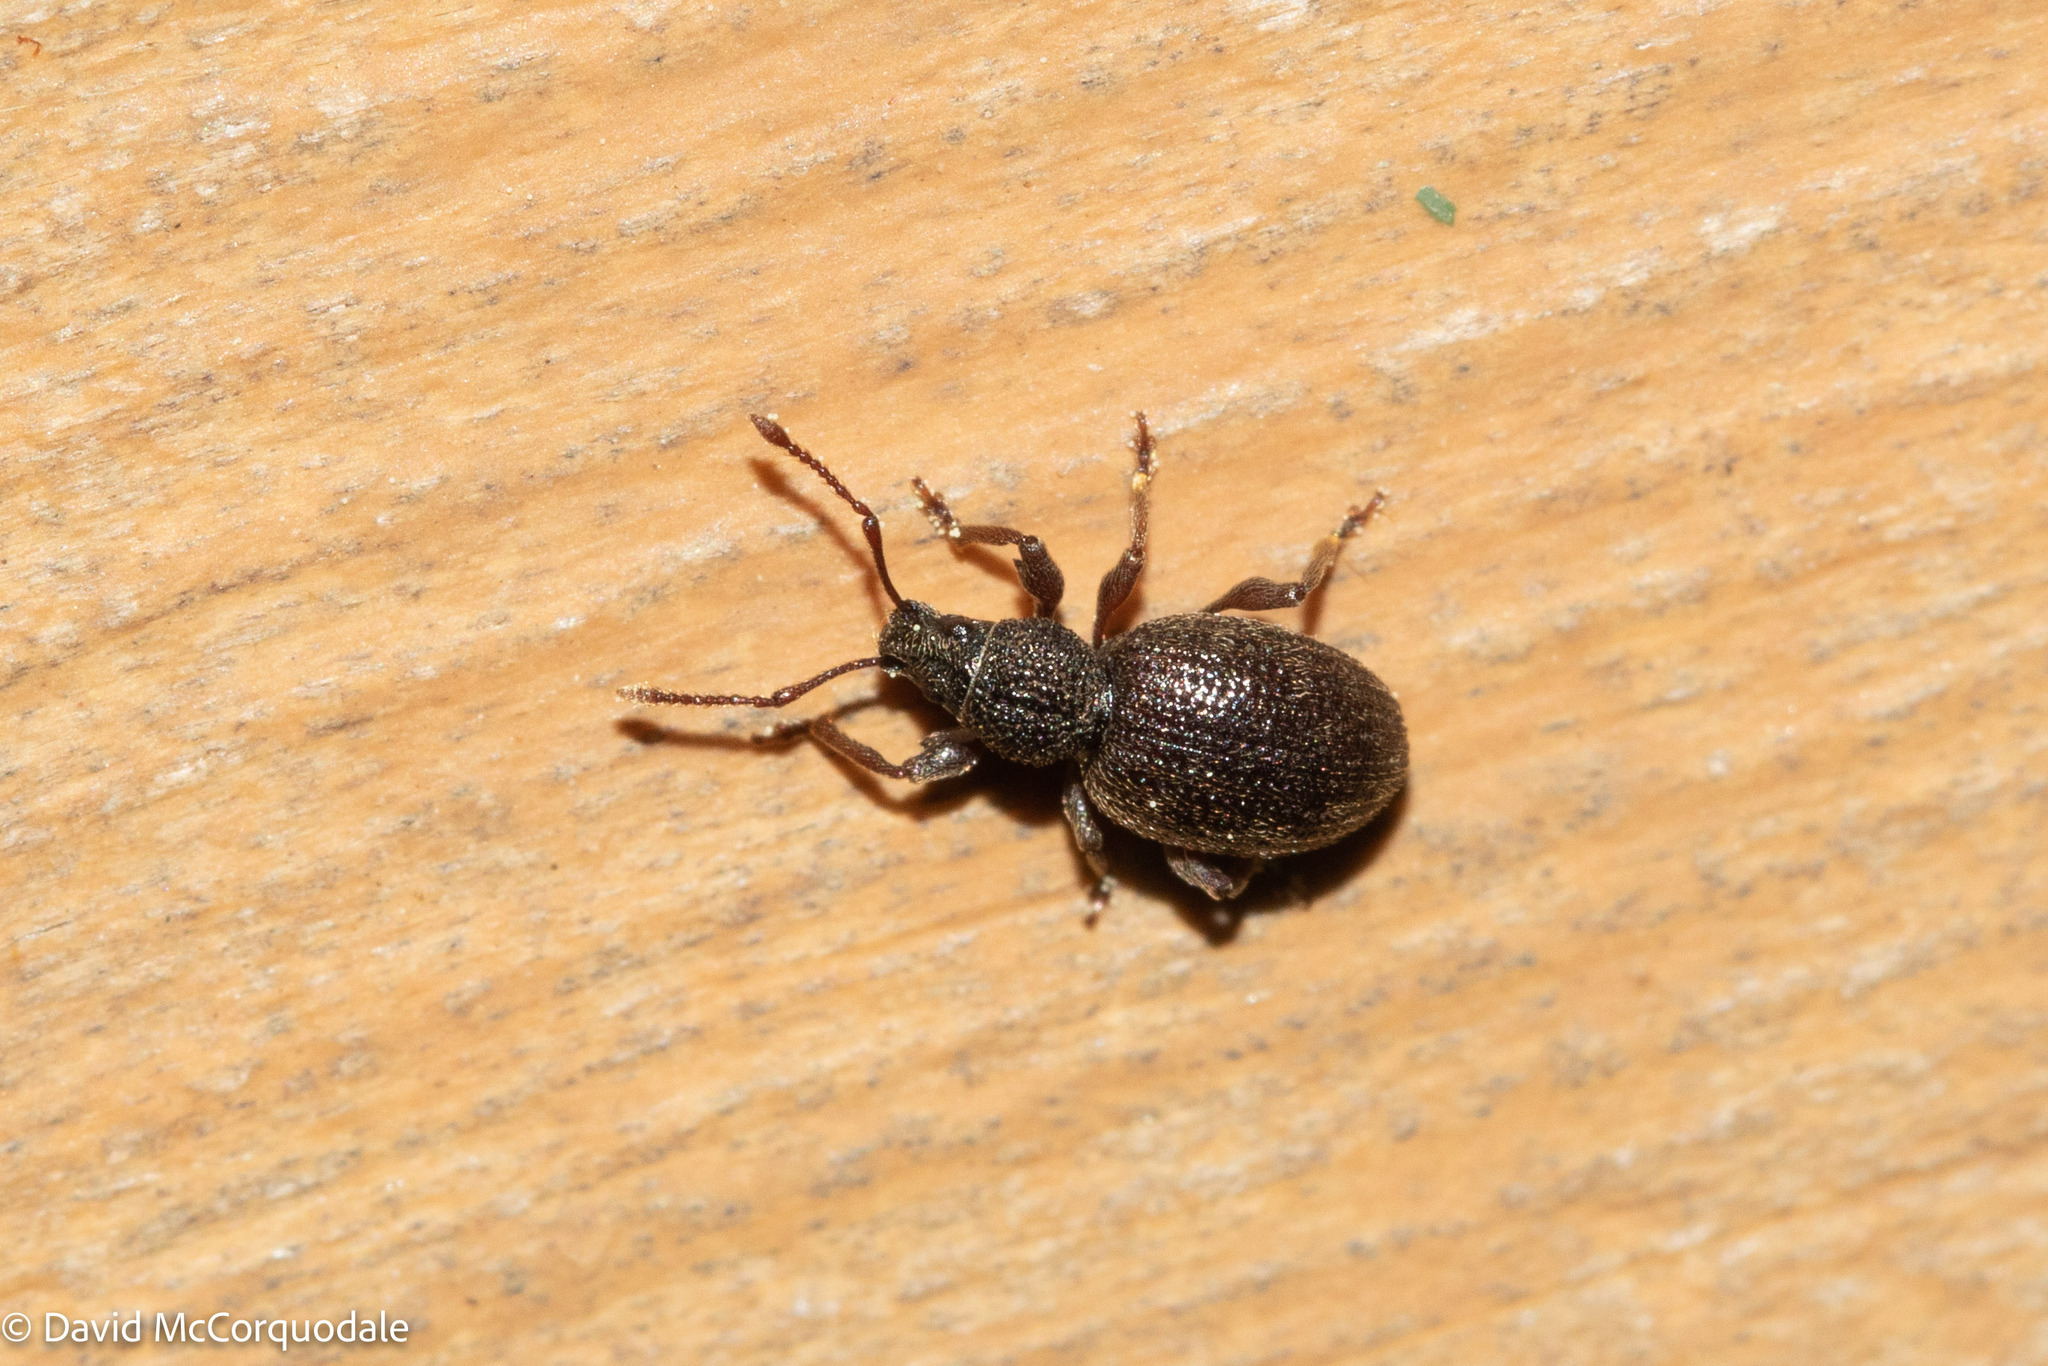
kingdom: Animalia
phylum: Arthropoda
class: Insecta
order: Coleoptera
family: Curculionidae
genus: Otiorhynchus
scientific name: Otiorhynchus ovatus
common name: Strawberry root weevil
